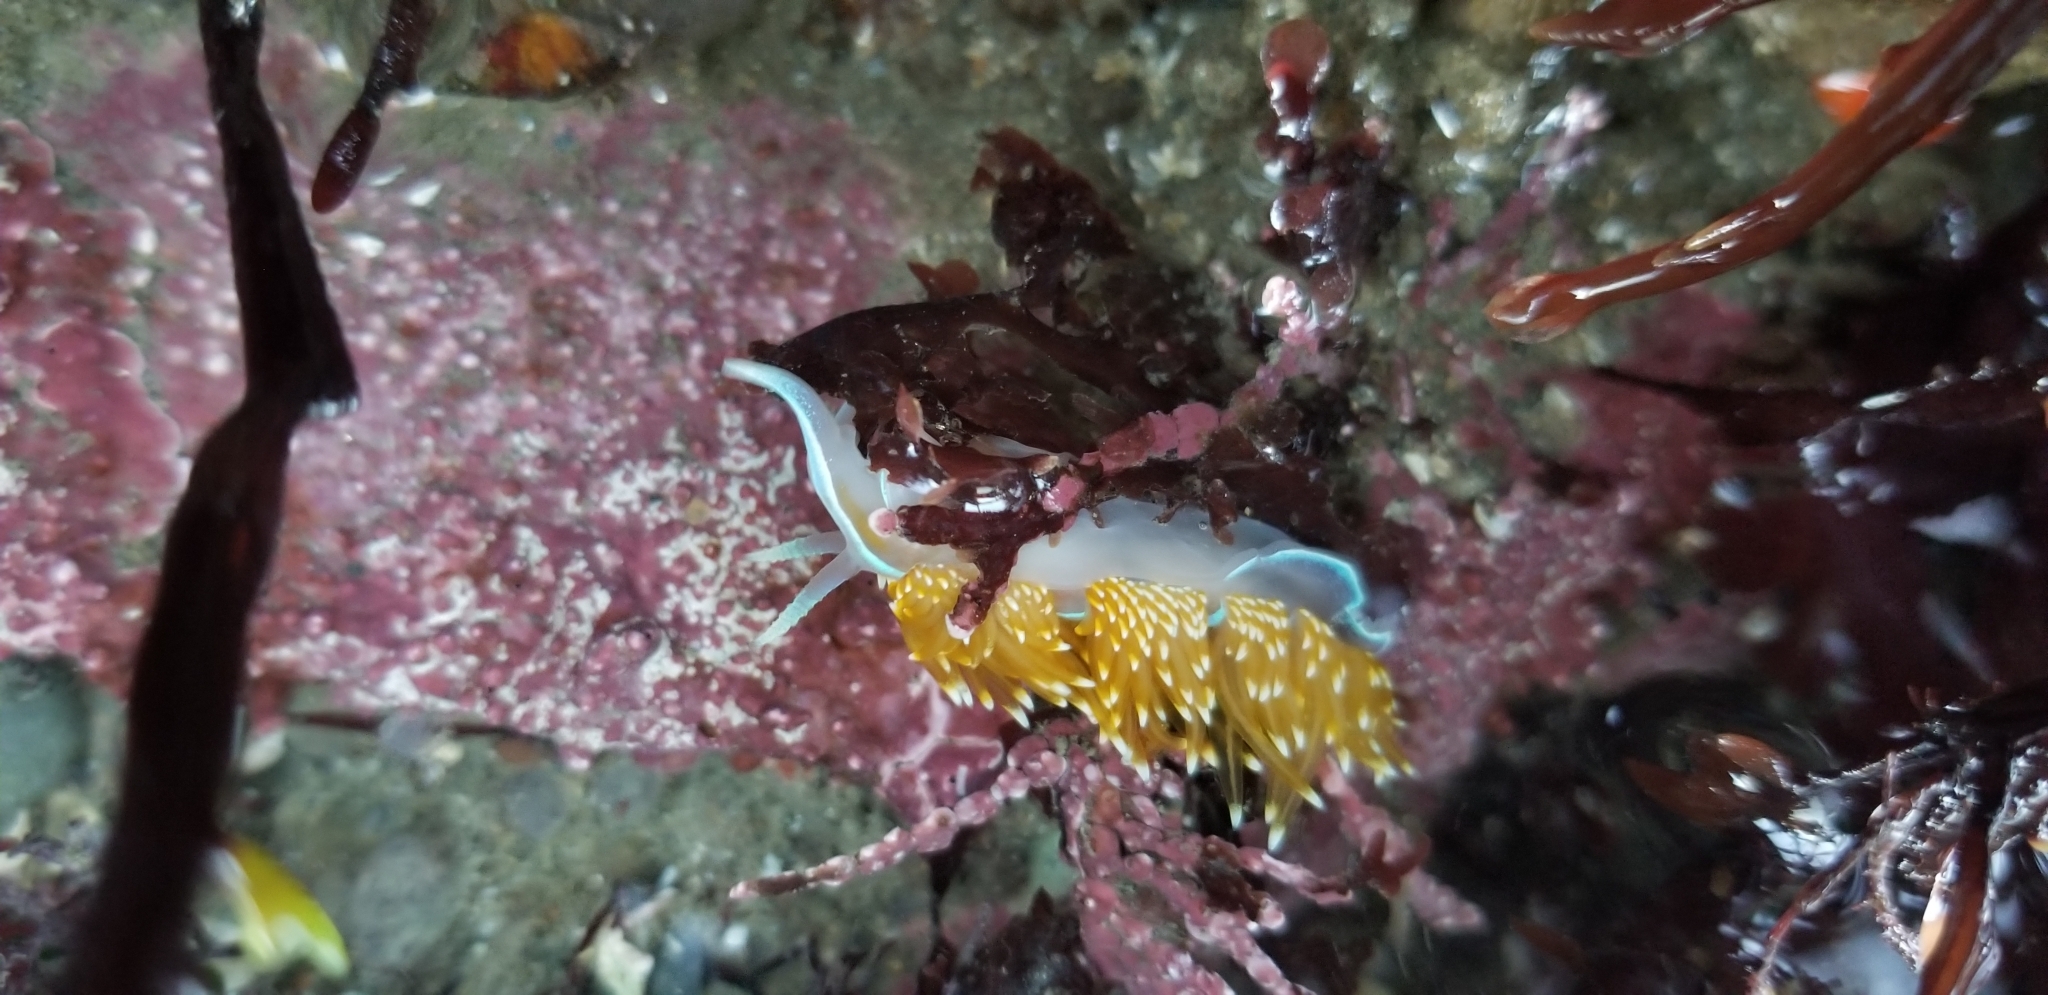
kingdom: Animalia
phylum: Mollusca
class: Gastropoda
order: Nudibranchia
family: Myrrhinidae
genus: Hermissenda
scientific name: Hermissenda opalescens
